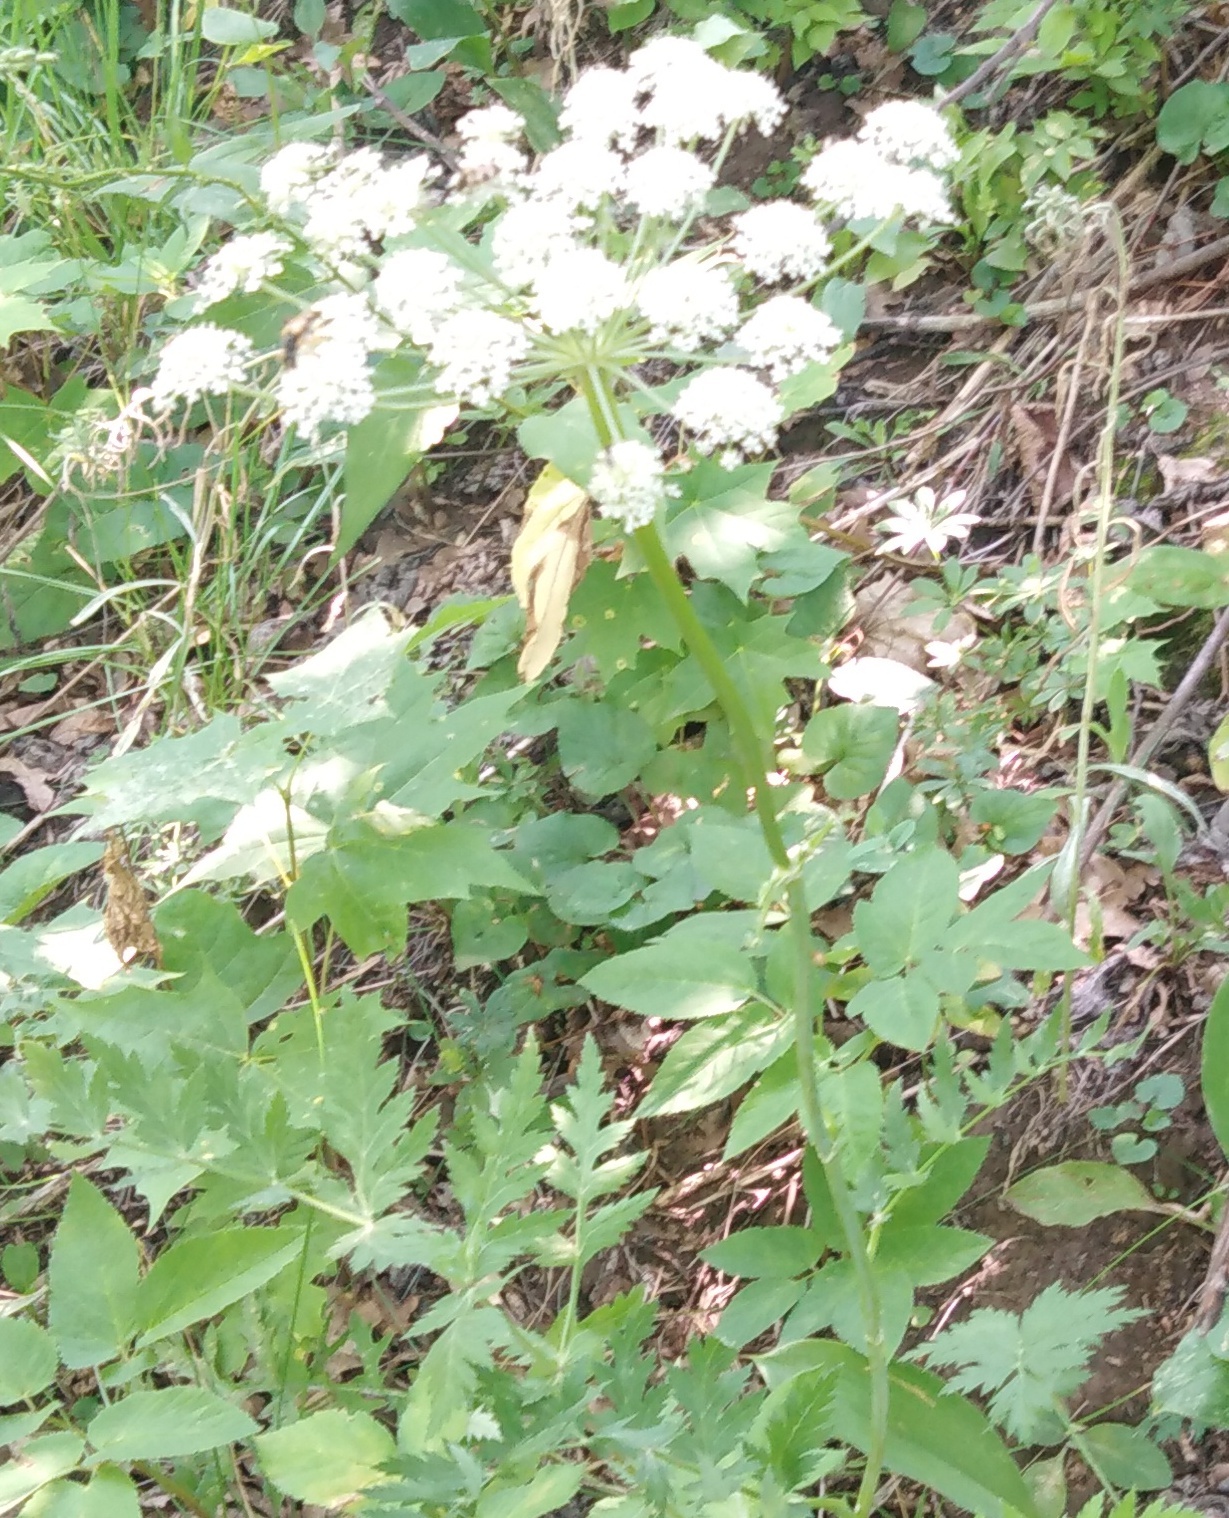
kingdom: Plantae
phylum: Tracheophyta
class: Magnoliopsida
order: Apiales
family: Apiaceae
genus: Aegopodium
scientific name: Aegopodium podagraria
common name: Ground-elder
